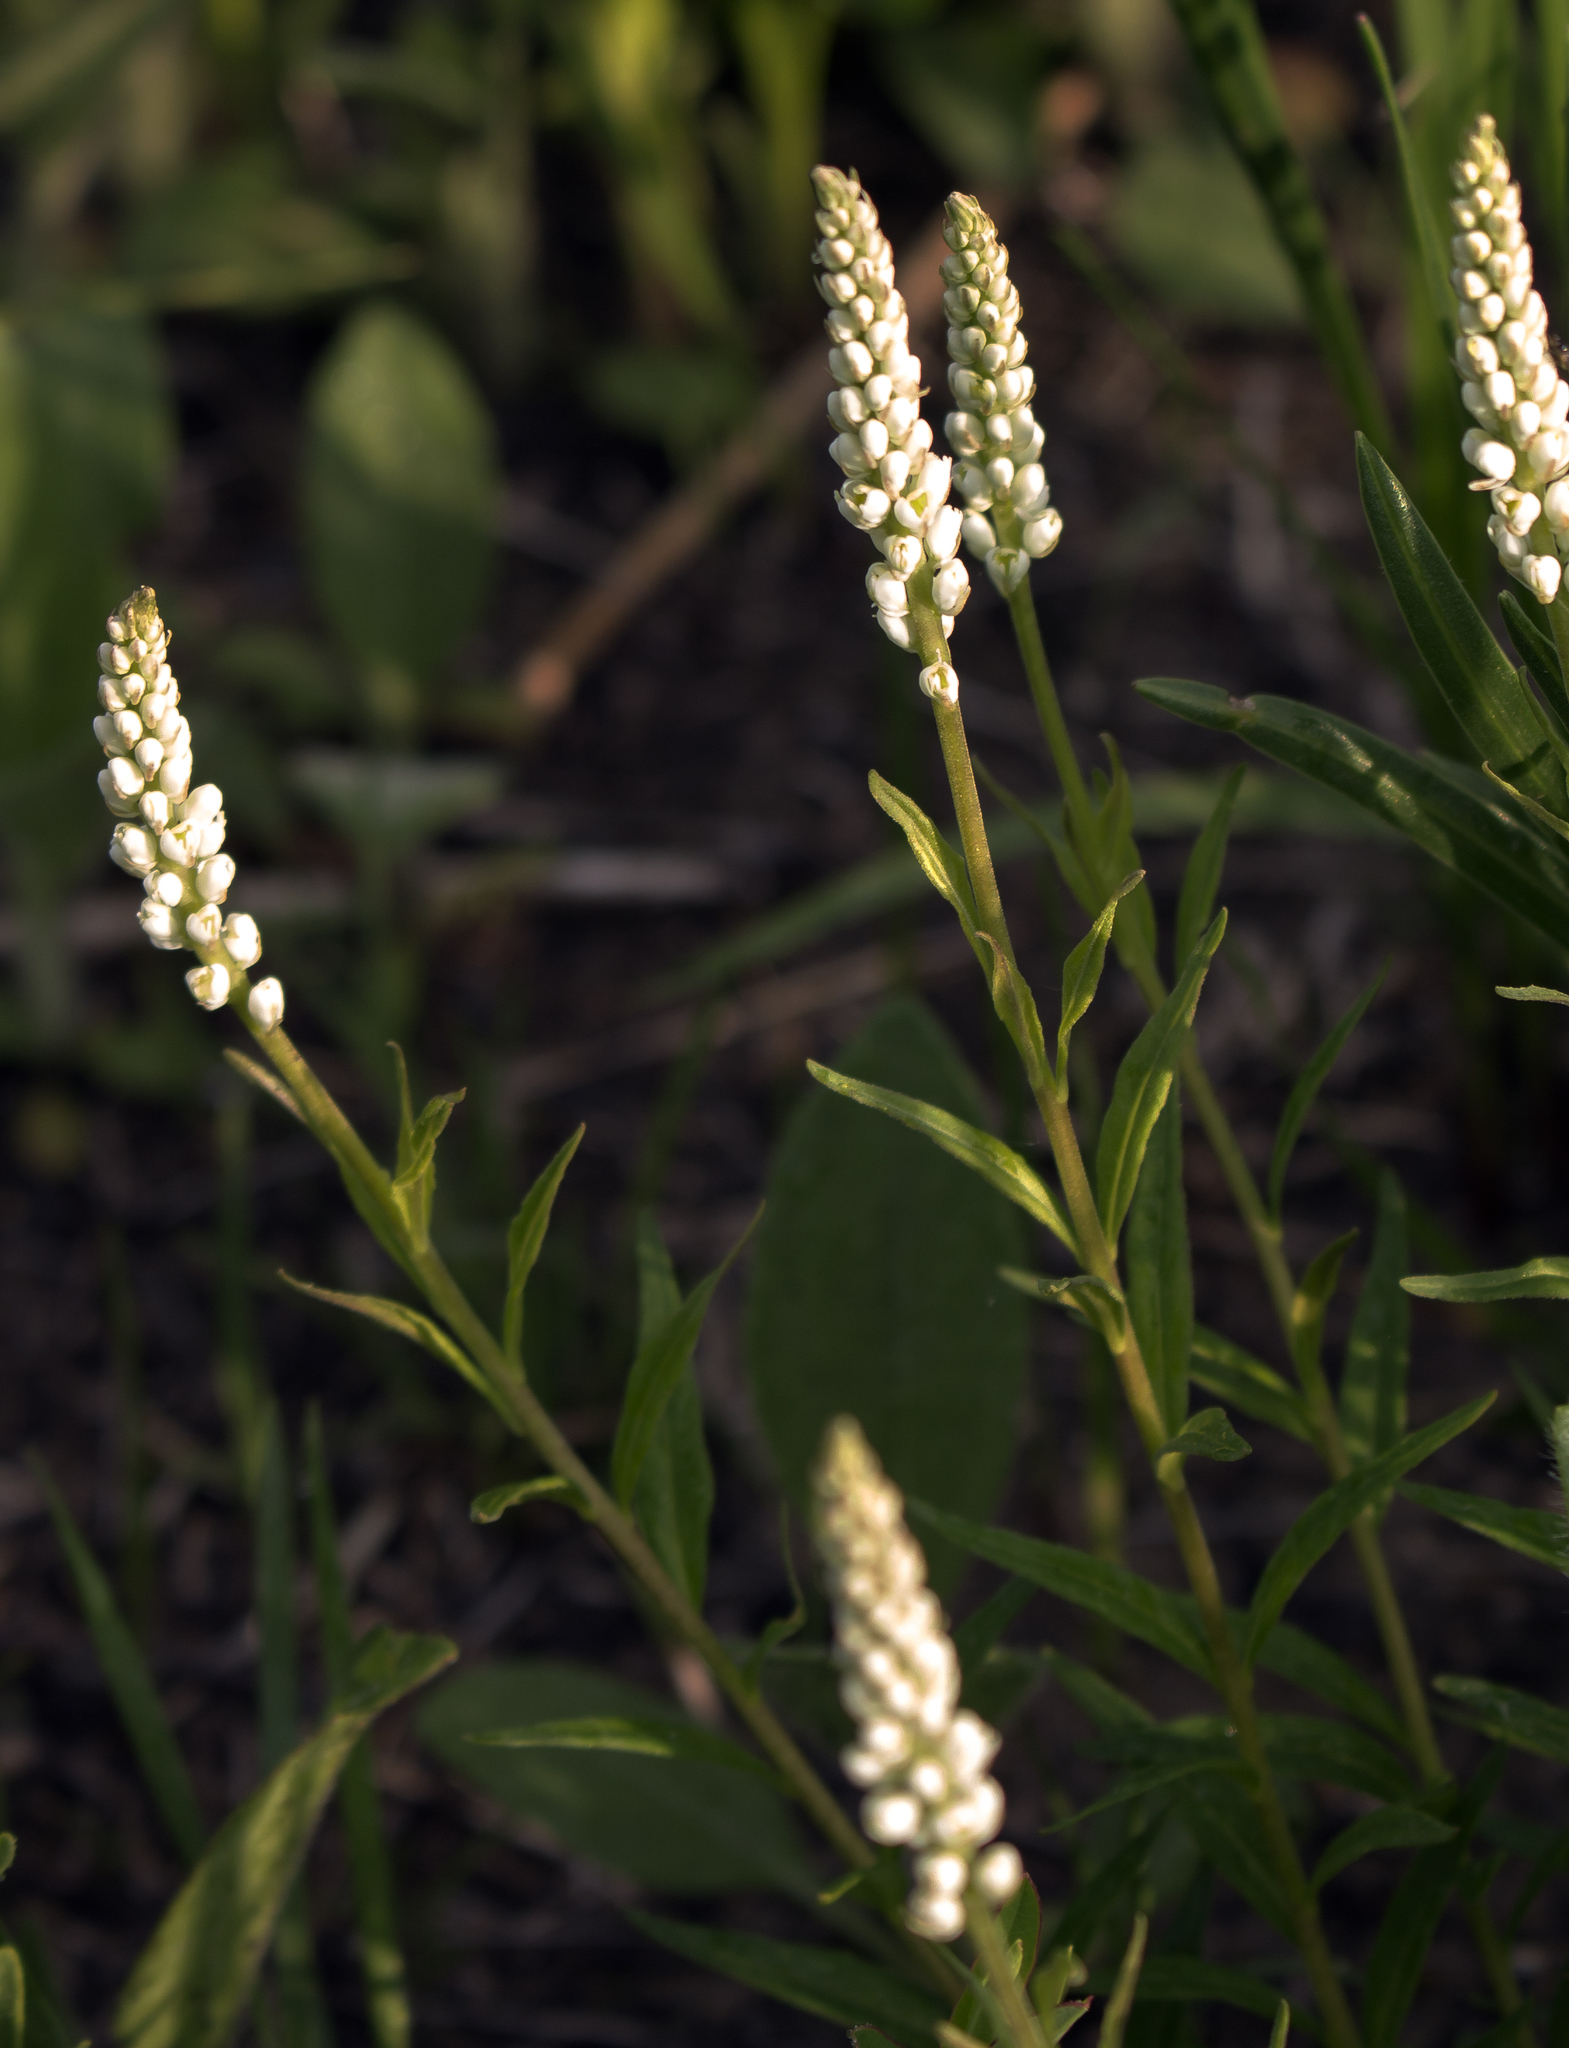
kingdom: Plantae
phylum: Tracheophyta
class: Magnoliopsida
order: Fabales
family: Polygalaceae
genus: Polygala
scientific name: Polygala senega
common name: Seneca snakeroot
